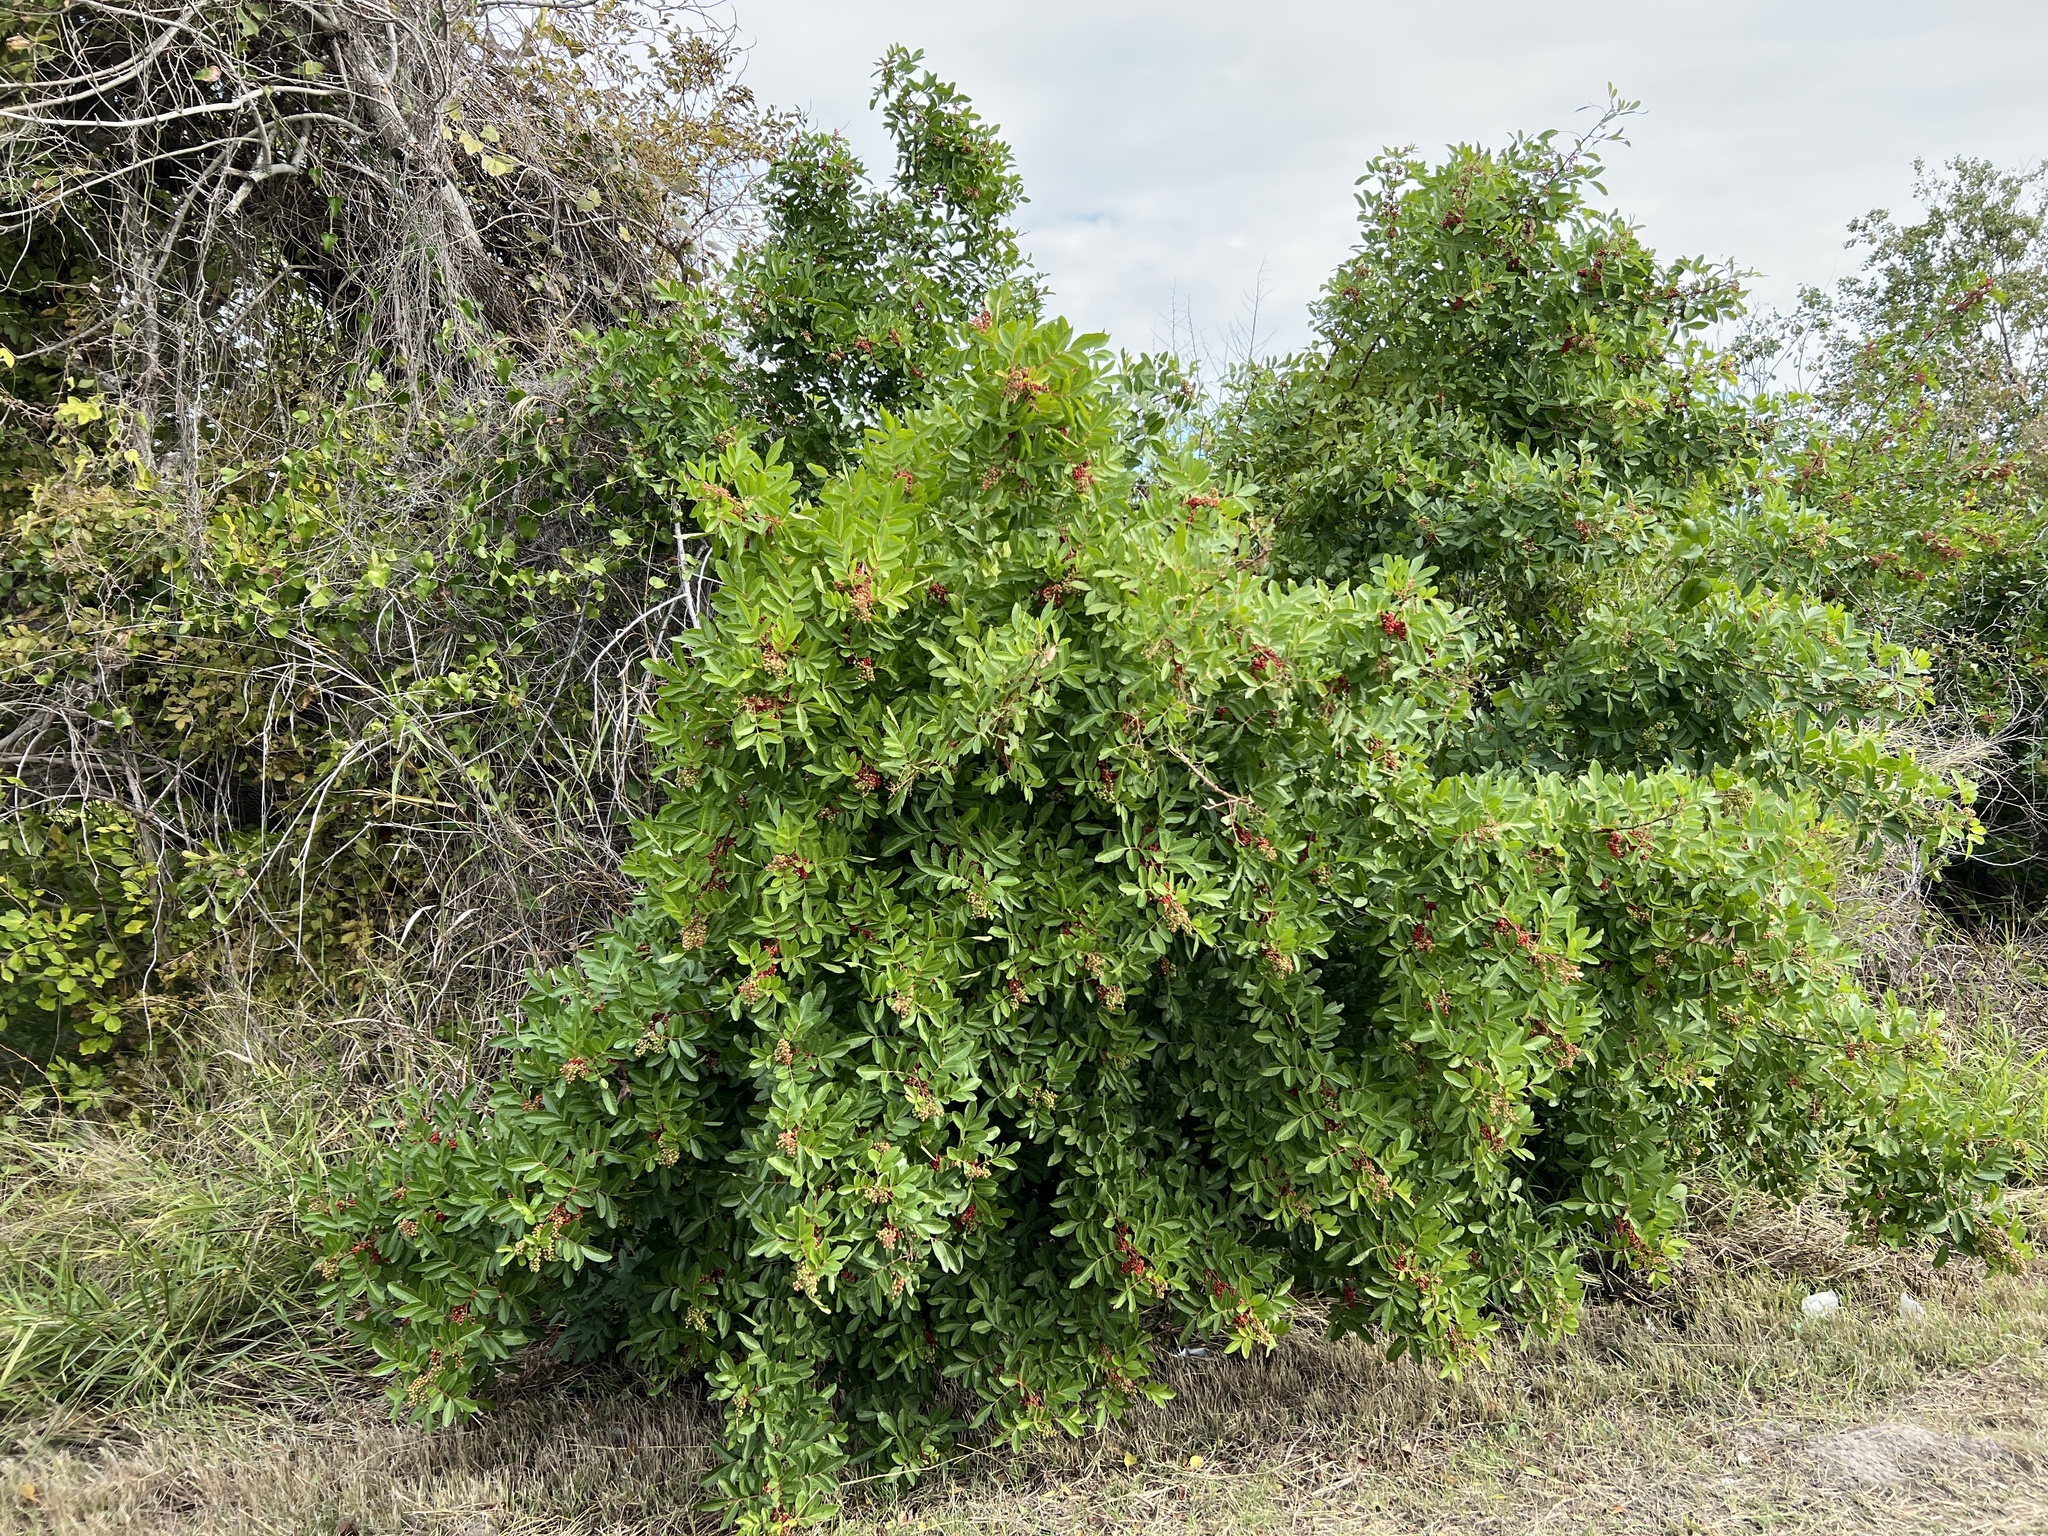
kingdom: Plantae
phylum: Tracheophyta
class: Magnoliopsida
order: Sapindales
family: Anacardiaceae
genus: Schinus
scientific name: Schinus terebinthifolia
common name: Brazilian peppertree
